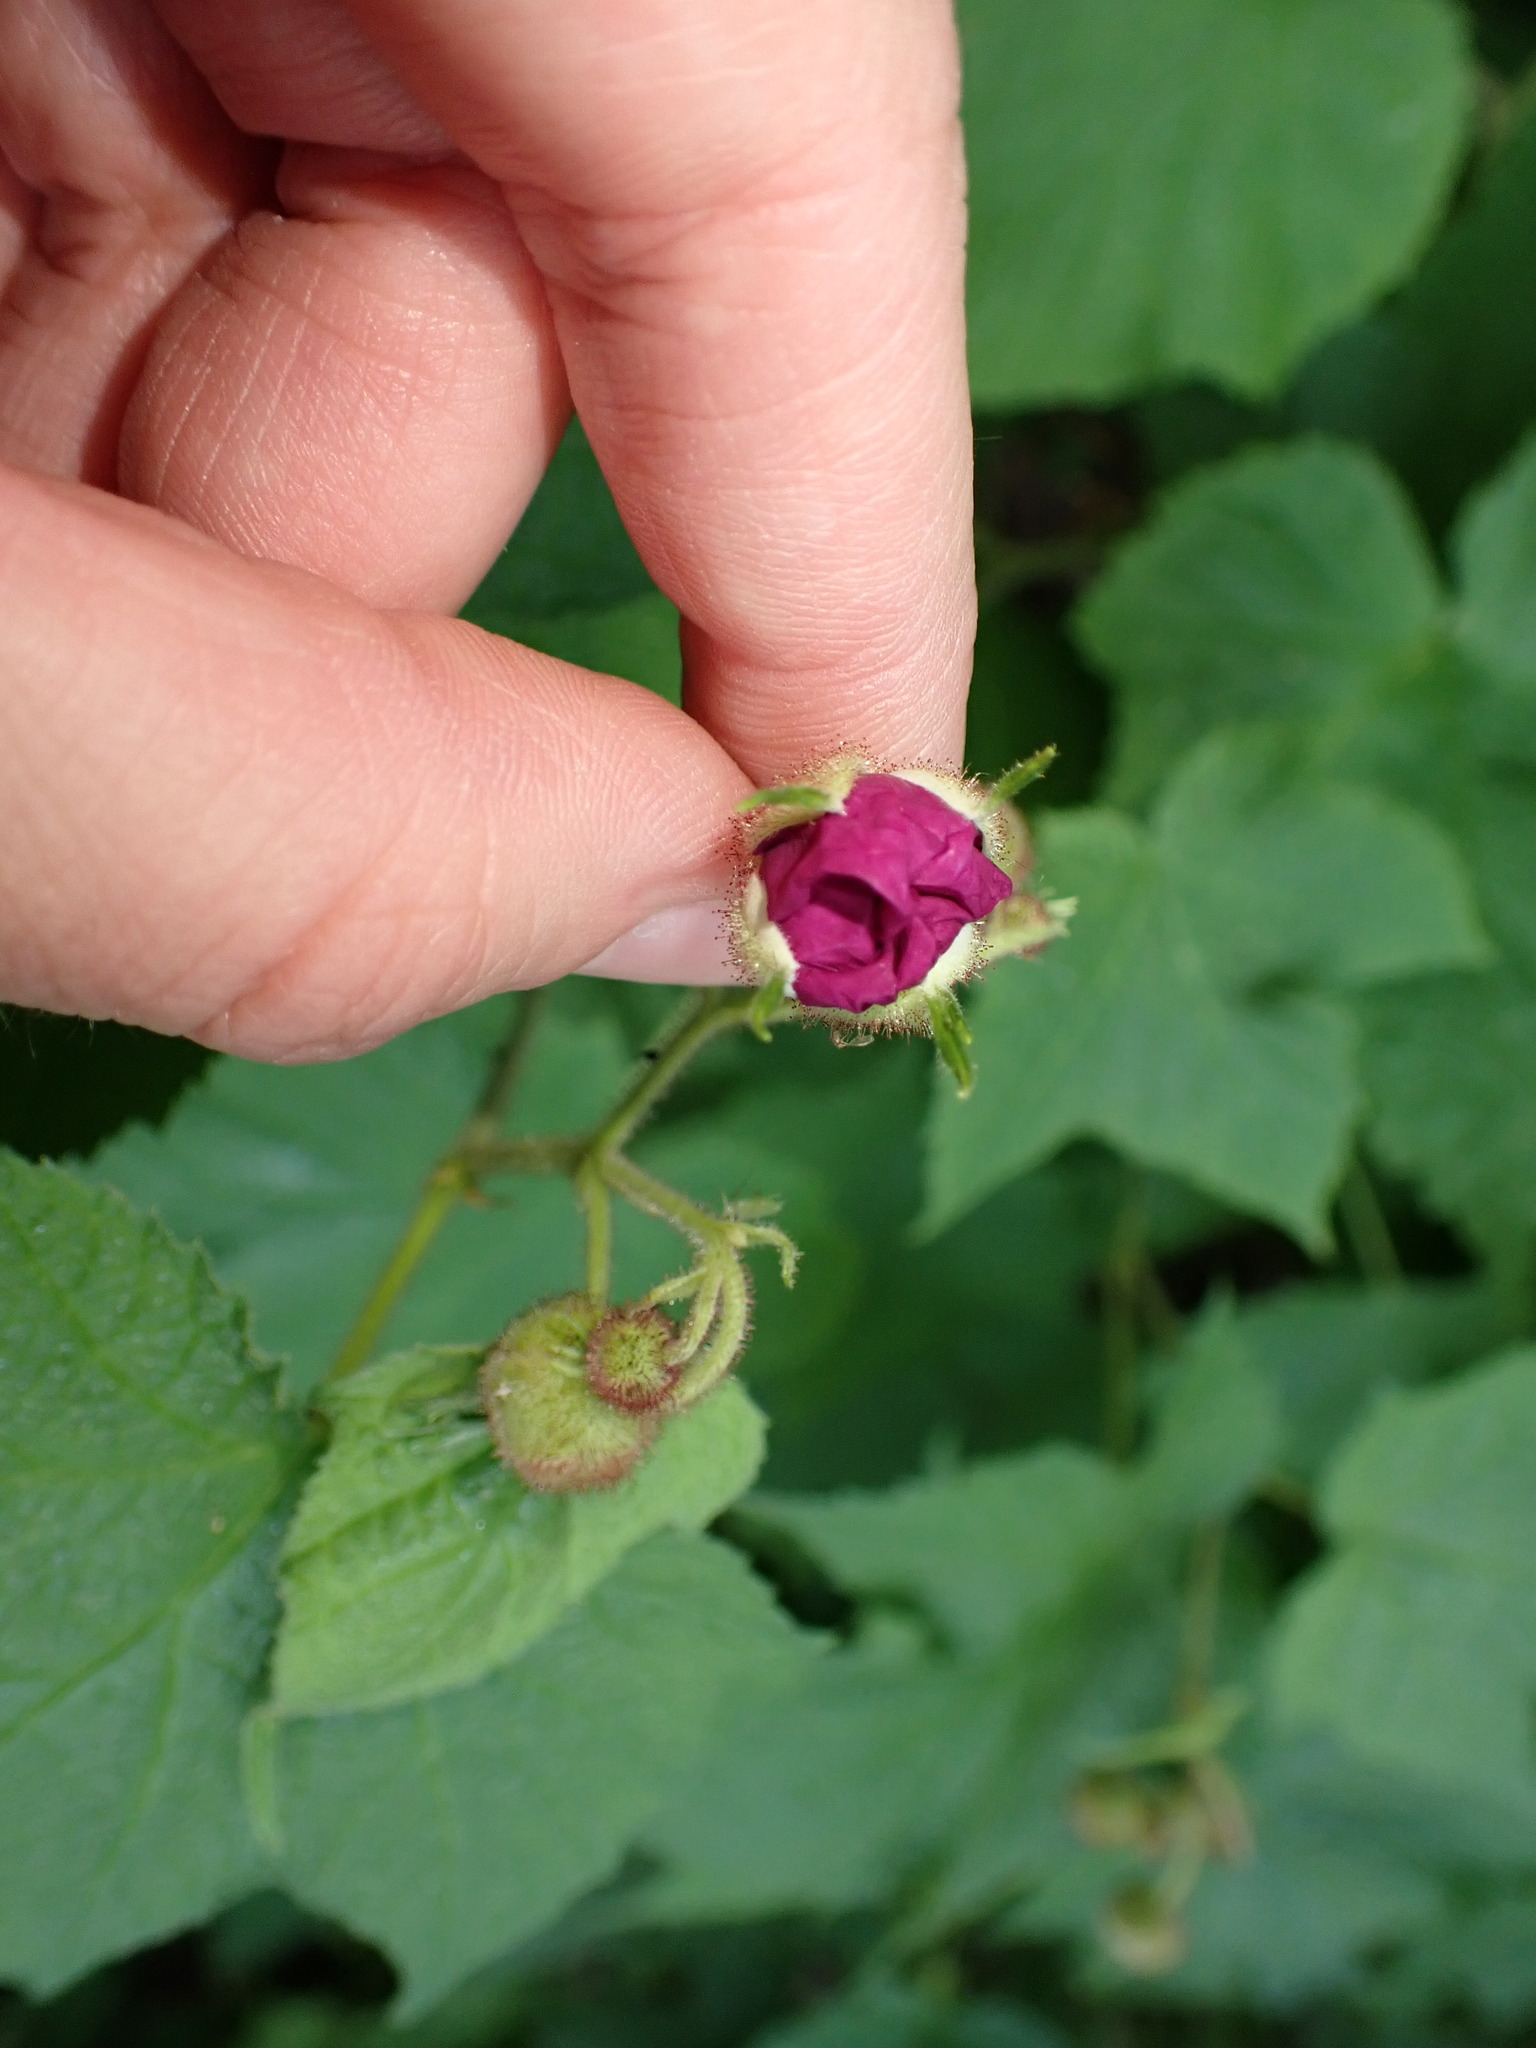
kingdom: Plantae
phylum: Tracheophyta
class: Magnoliopsida
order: Rosales
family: Rosaceae
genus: Rubus
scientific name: Rubus odoratus
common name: Purple-flowered raspberry
